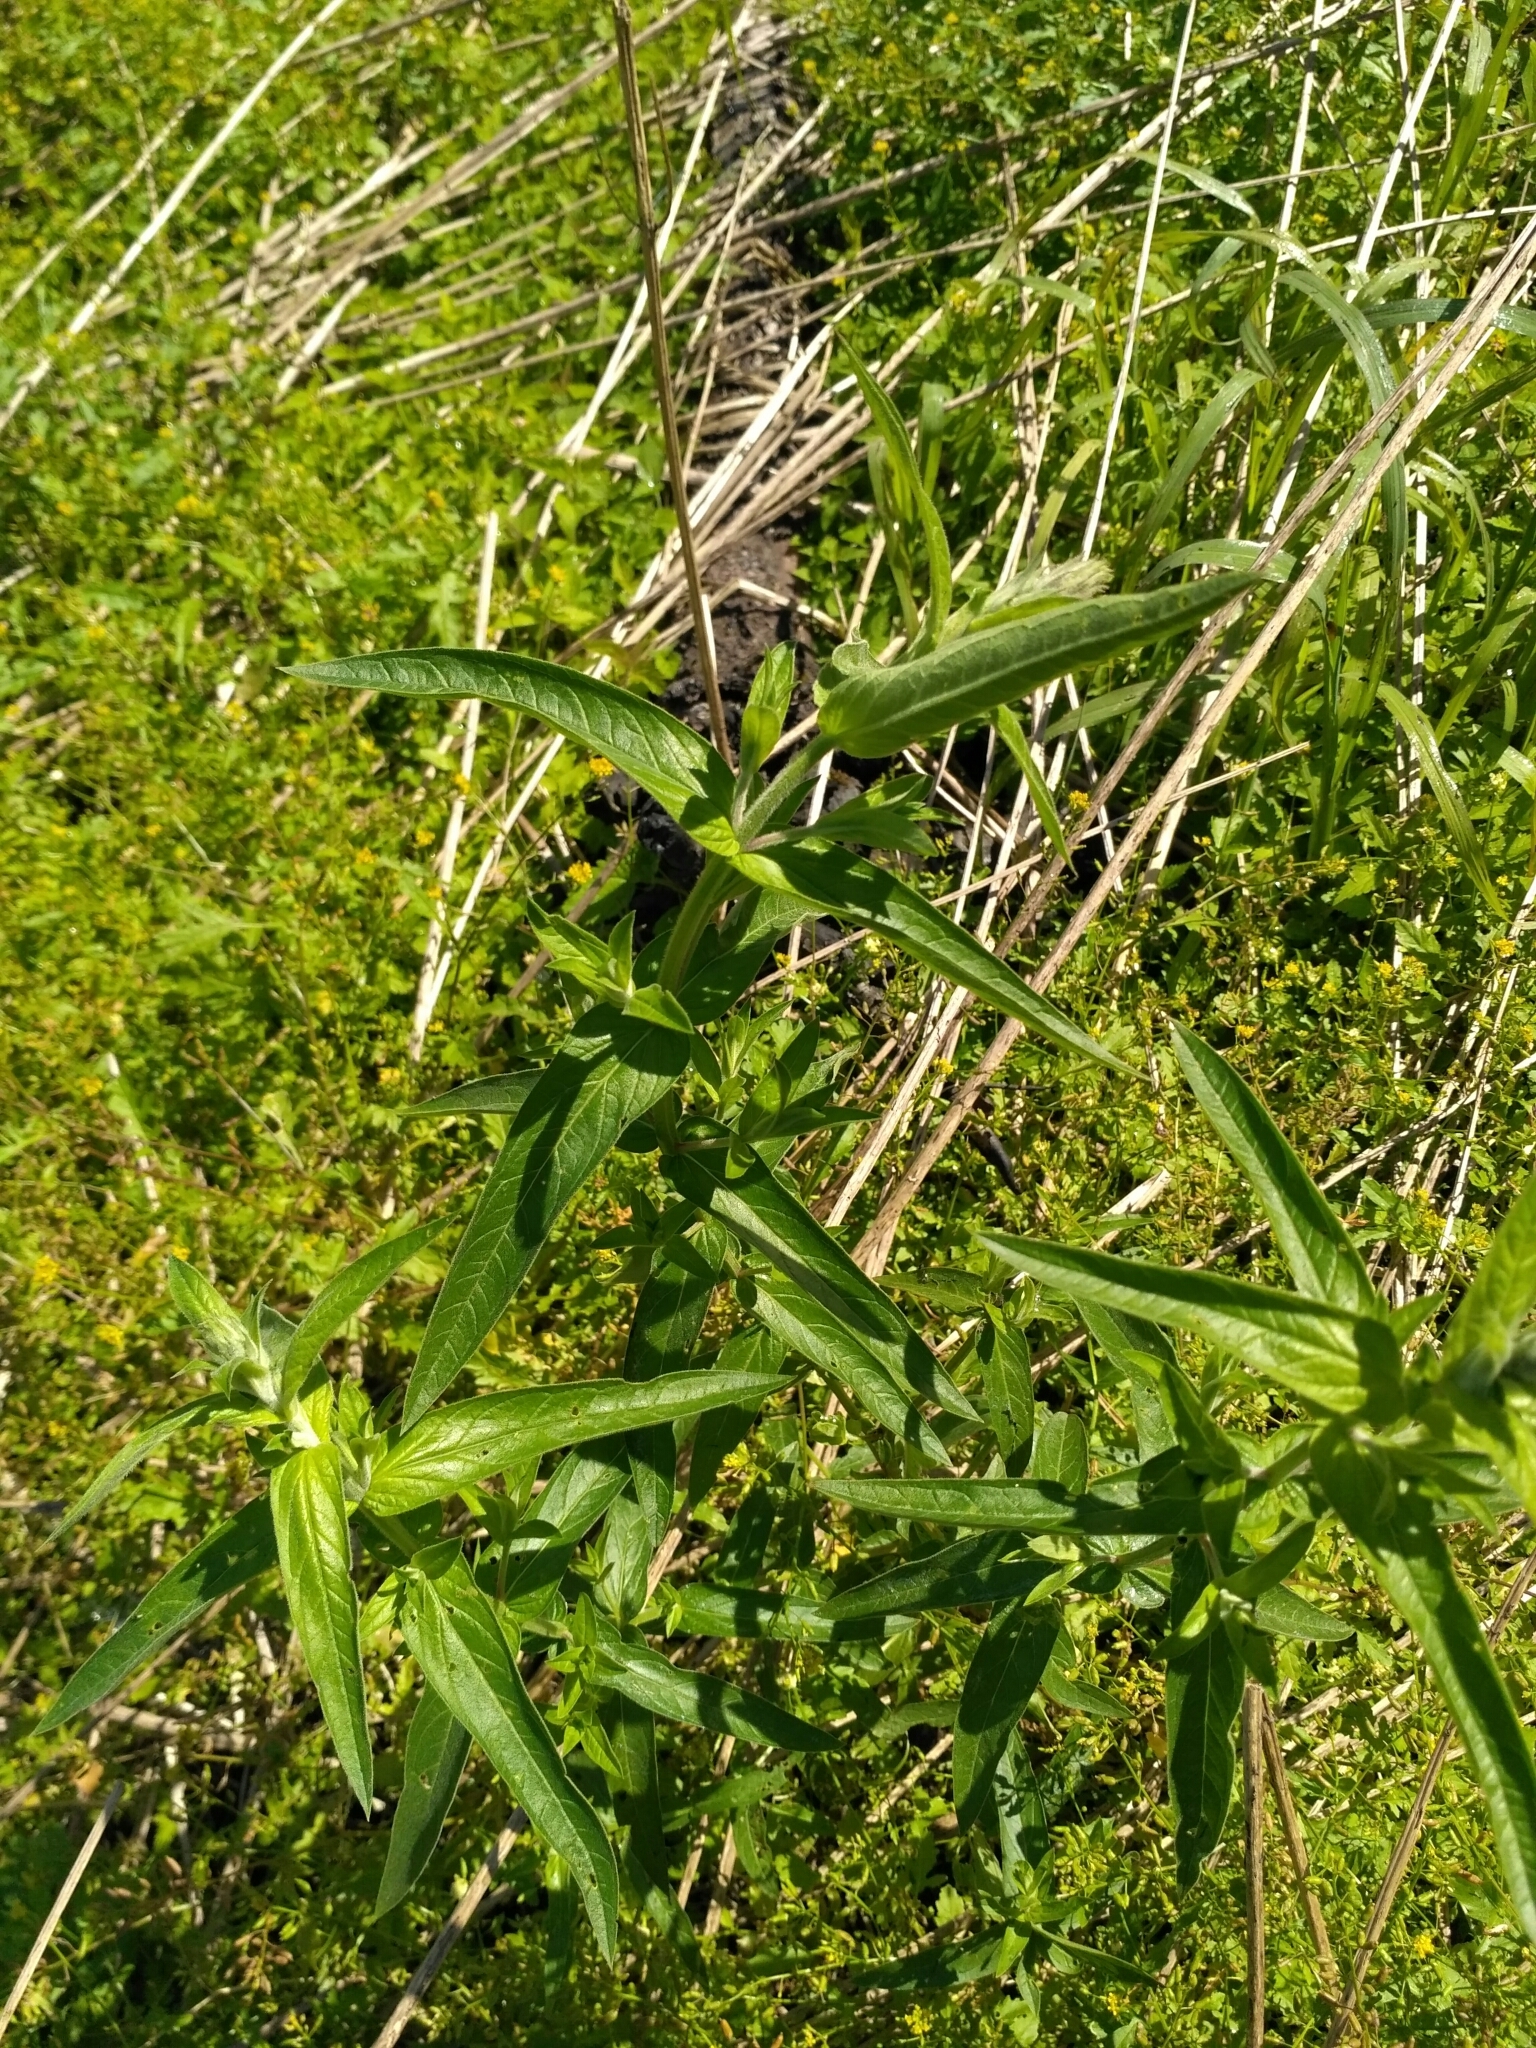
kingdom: Plantae
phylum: Tracheophyta
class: Magnoliopsida
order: Ericales
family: Primulaceae
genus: Lysimachia
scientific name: Lysimachia vulgaris
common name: Yellow loosestrife
